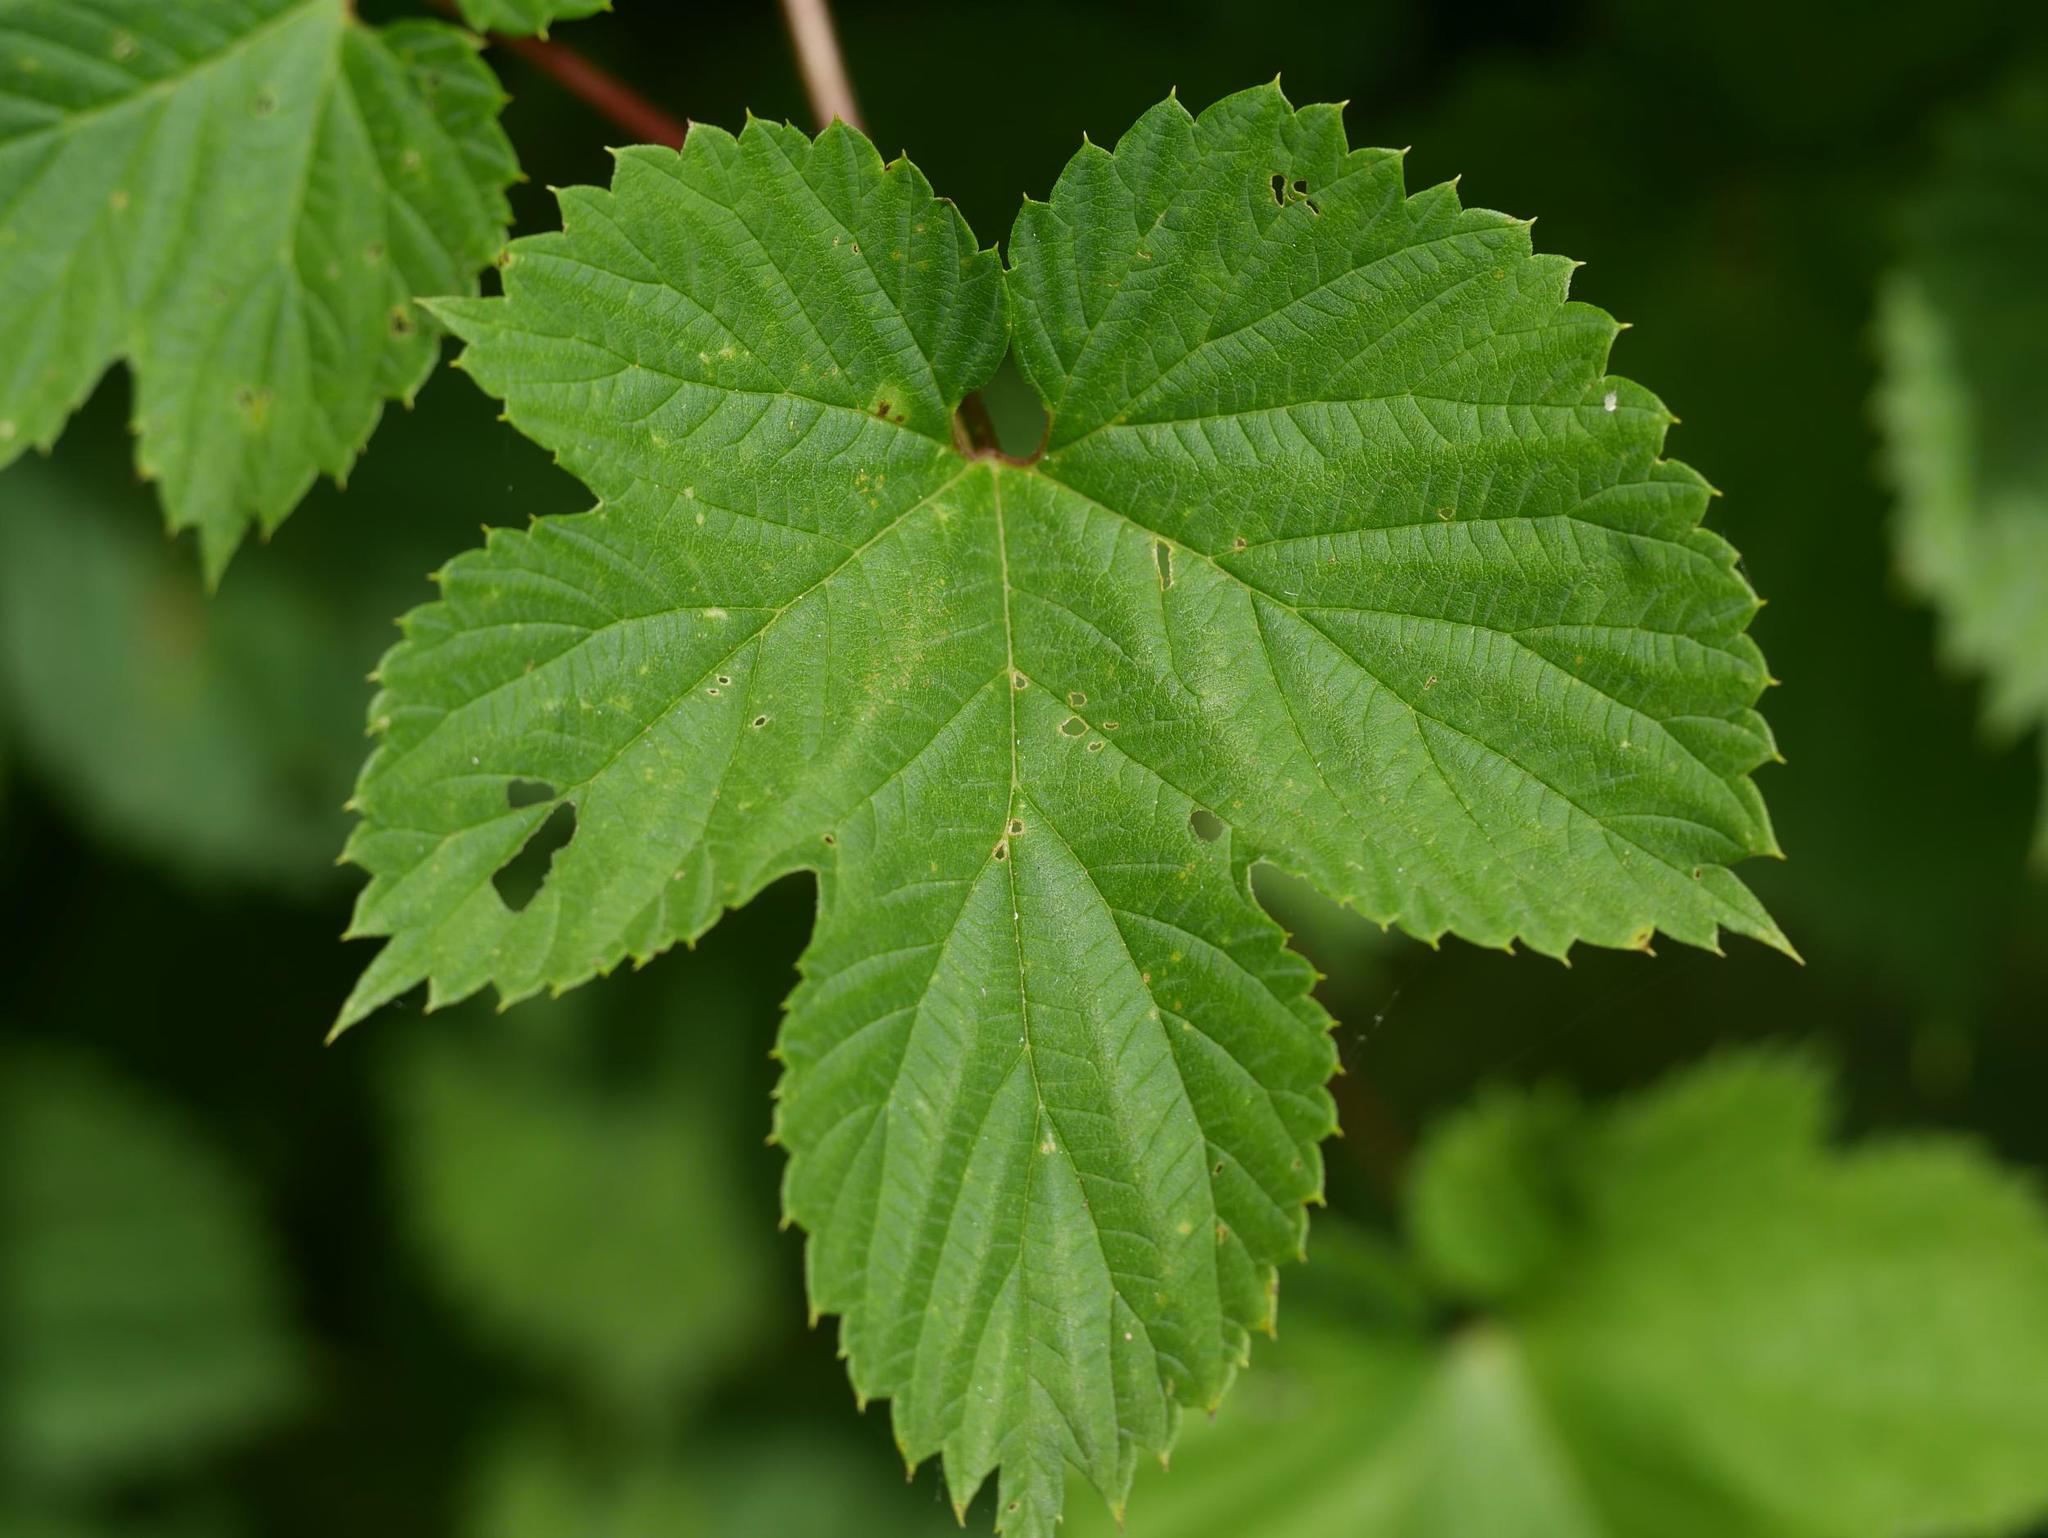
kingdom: Plantae
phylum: Tracheophyta
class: Magnoliopsida
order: Rosales
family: Cannabaceae
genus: Humulus
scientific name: Humulus lupulus
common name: Hop
